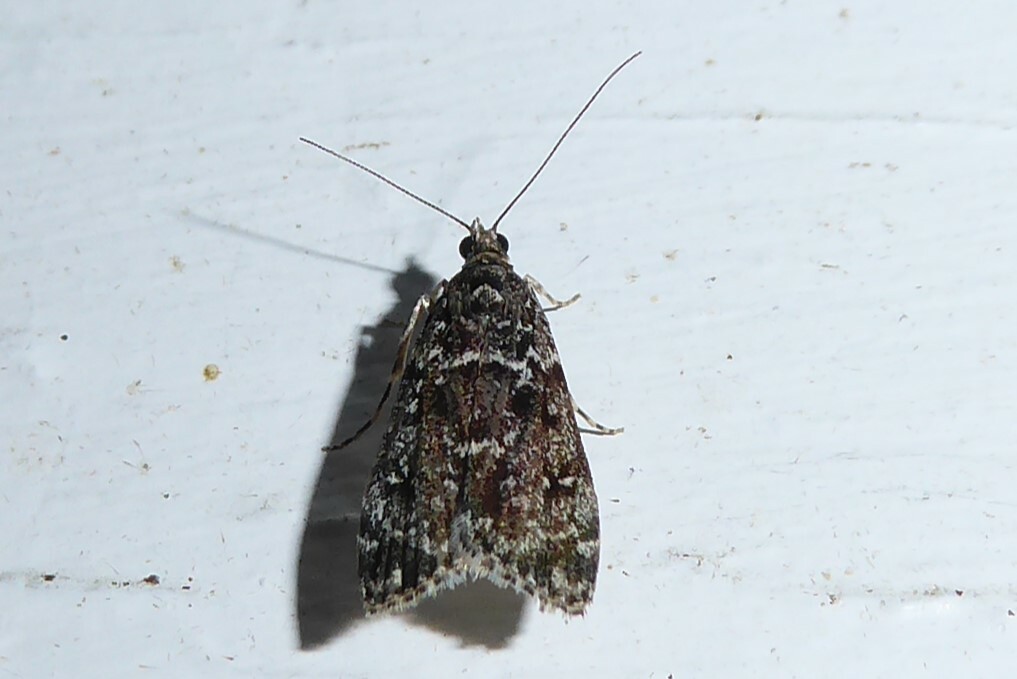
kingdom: Animalia
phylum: Arthropoda
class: Insecta
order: Lepidoptera
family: Crambidae
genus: Eudonia
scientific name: Eudonia philerga
